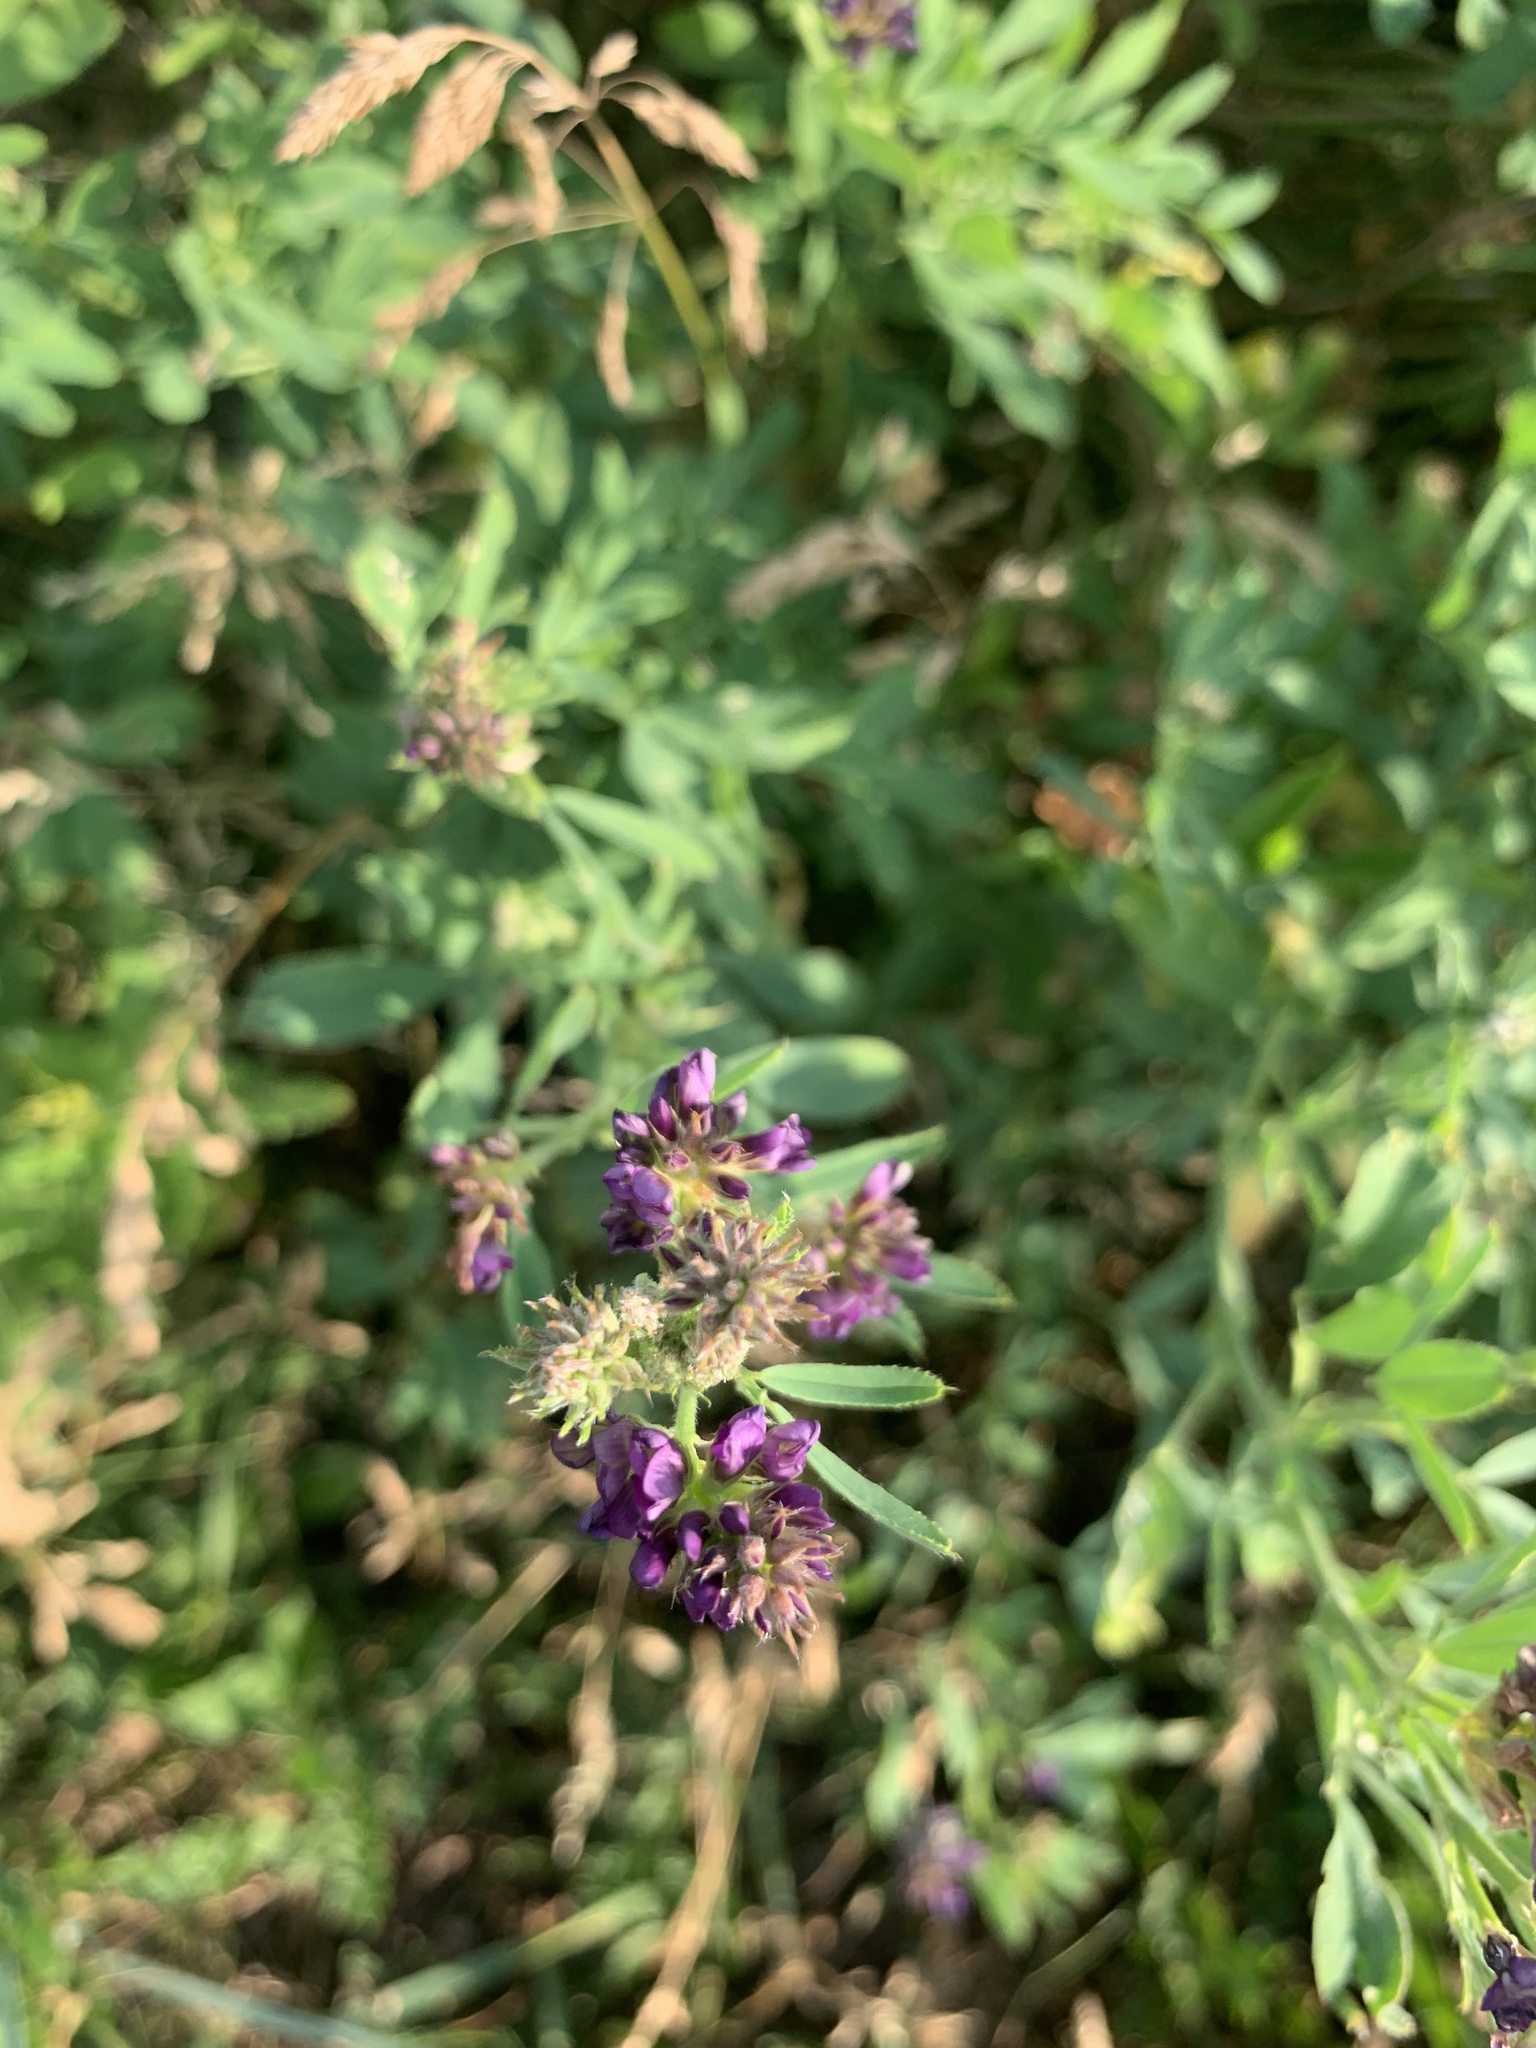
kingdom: Plantae
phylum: Tracheophyta
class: Magnoliopsida
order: Fabales
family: Fabaceae
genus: Medicago
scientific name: Medicago sativa
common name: Alfalfa
